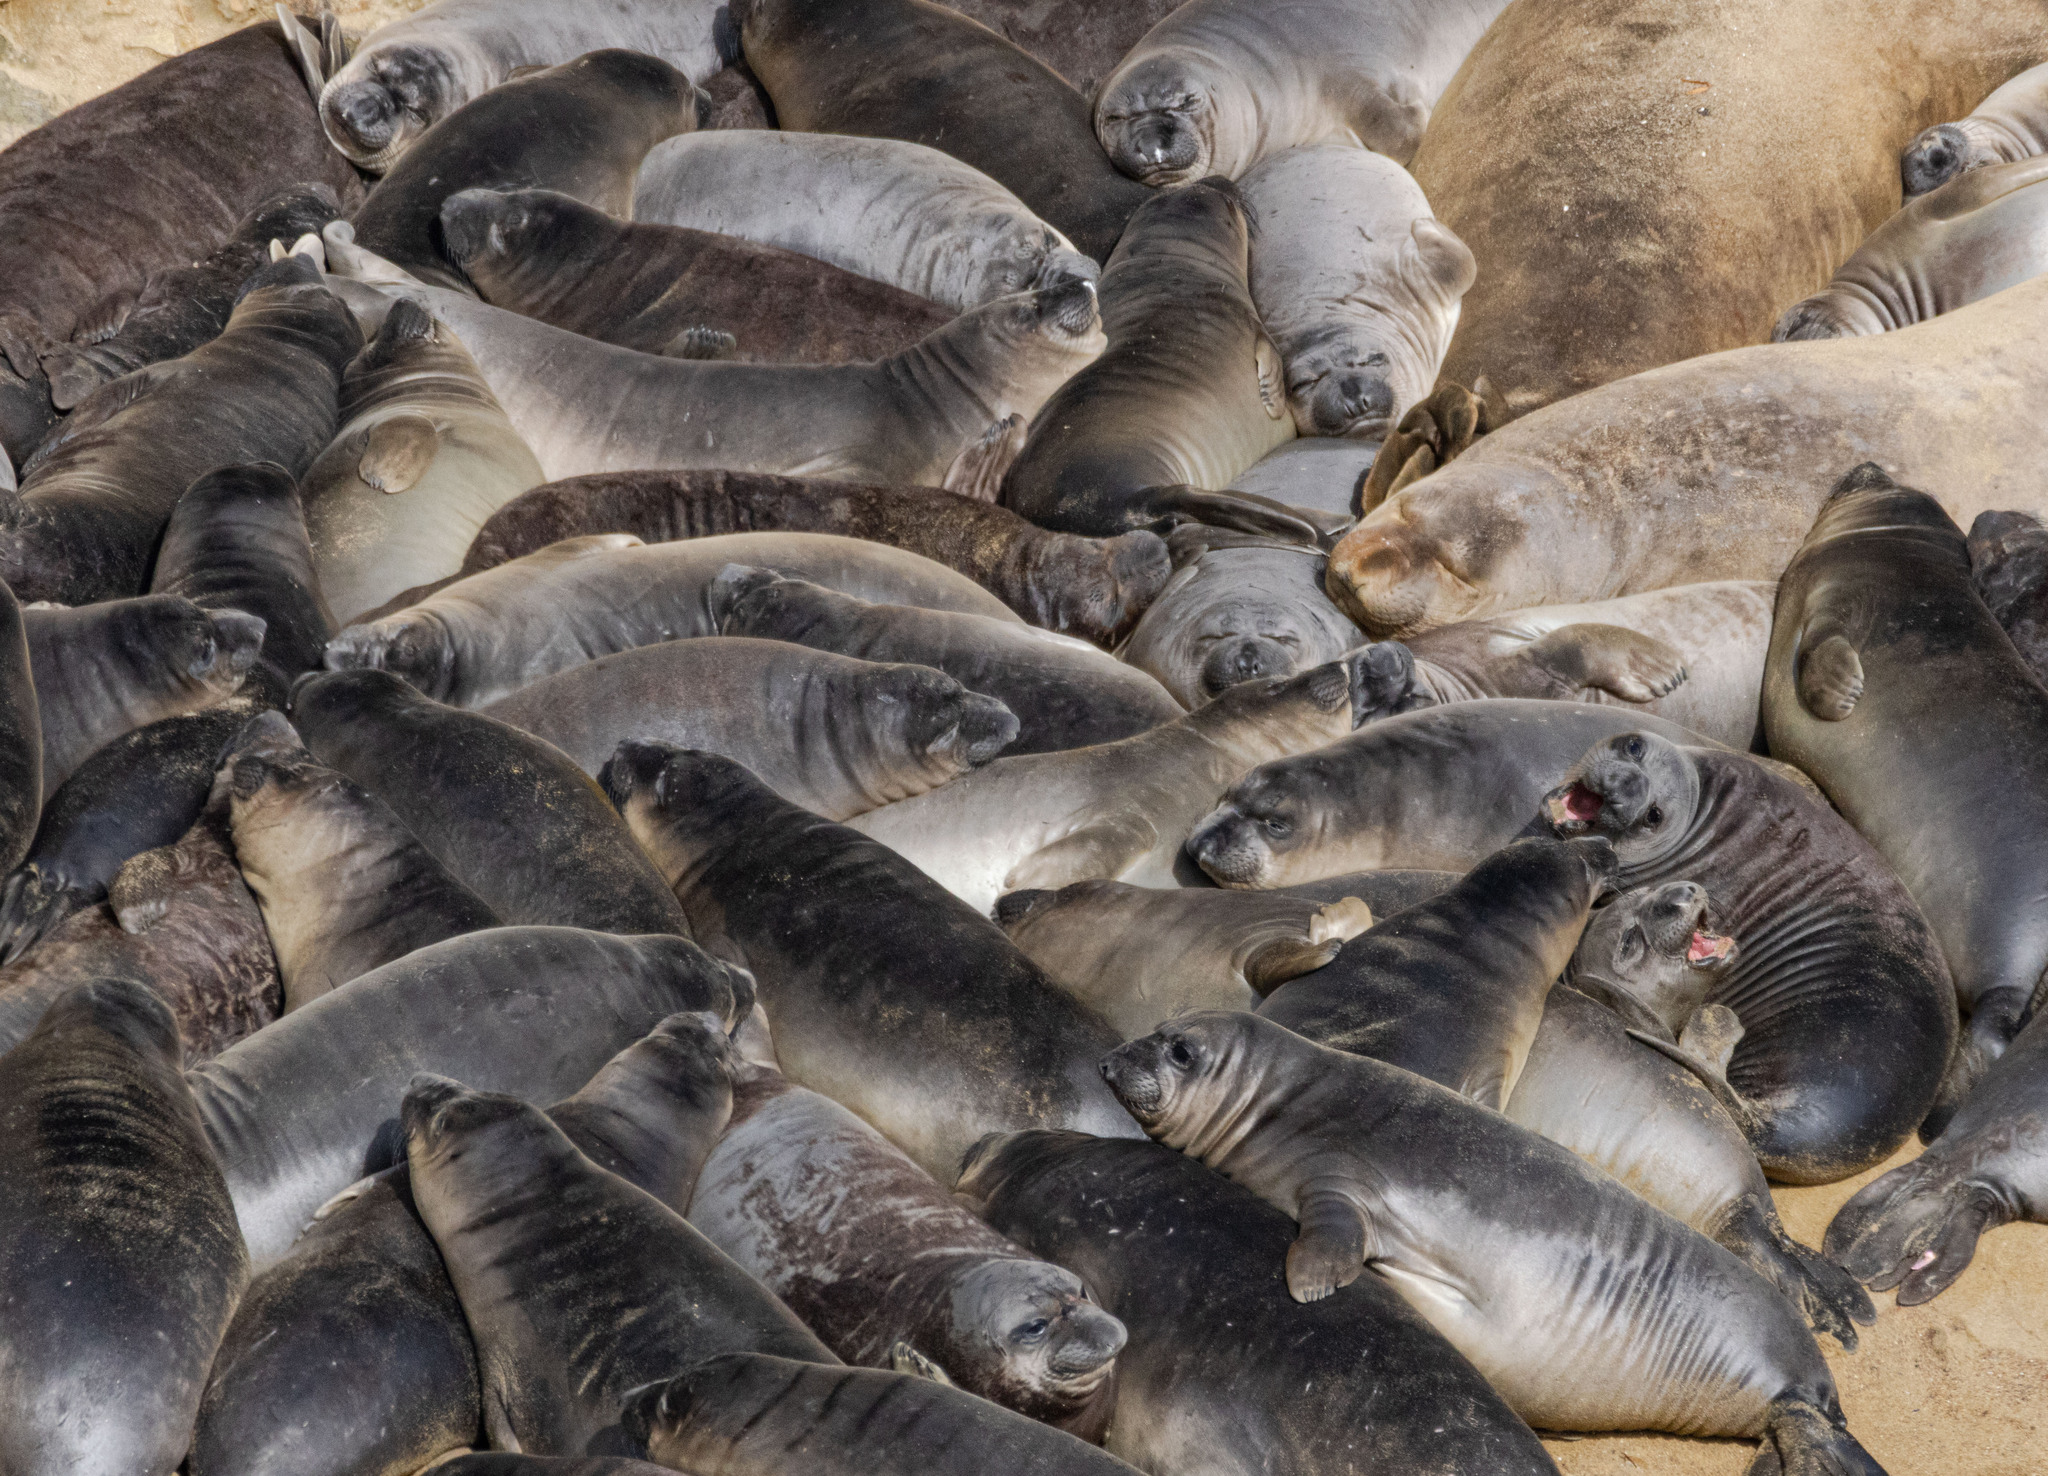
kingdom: Animalia
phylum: Chordata
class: Mammalia
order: Carnivora
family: Phocidae
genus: Mirounga
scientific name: Mirounga angustirostris
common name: Northern elephant seal
